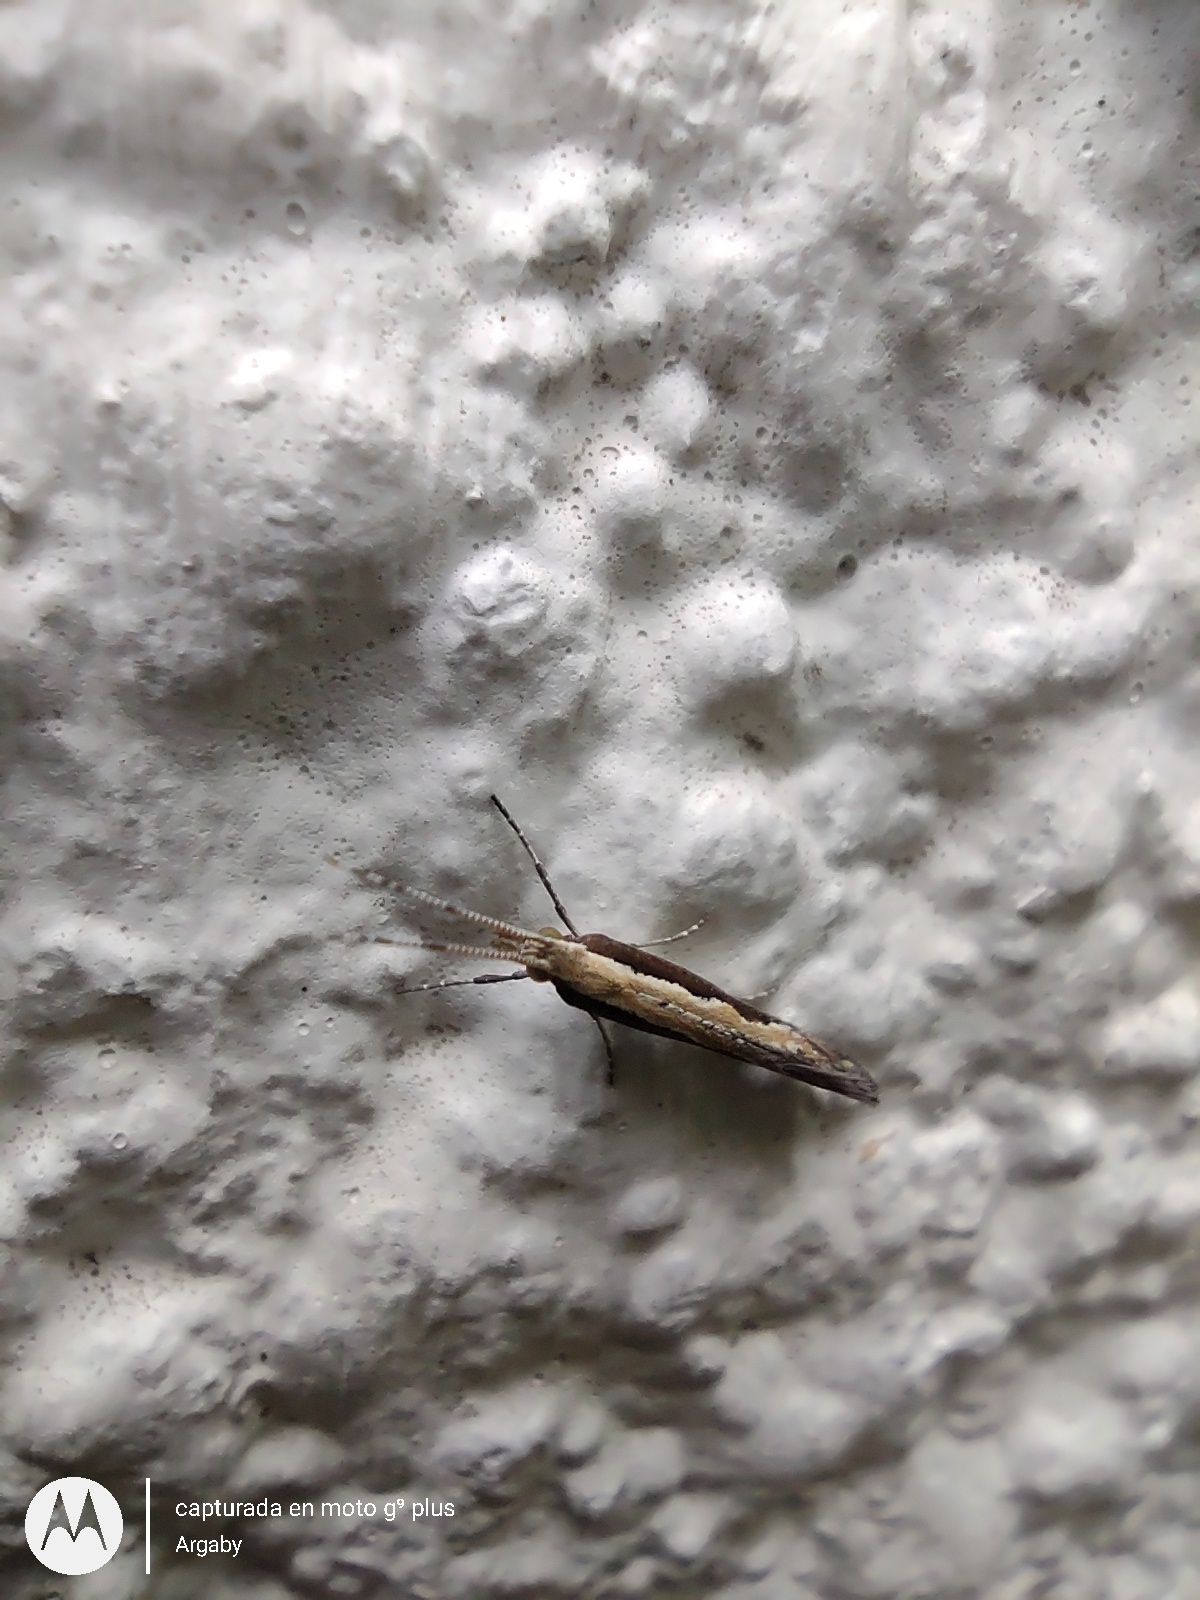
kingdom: Animalia
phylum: Arthropoda
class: Insecta
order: Lepidoptera
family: Plutellidae
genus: Plutella
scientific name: Plutella xylostella
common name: Diamond-back moth
